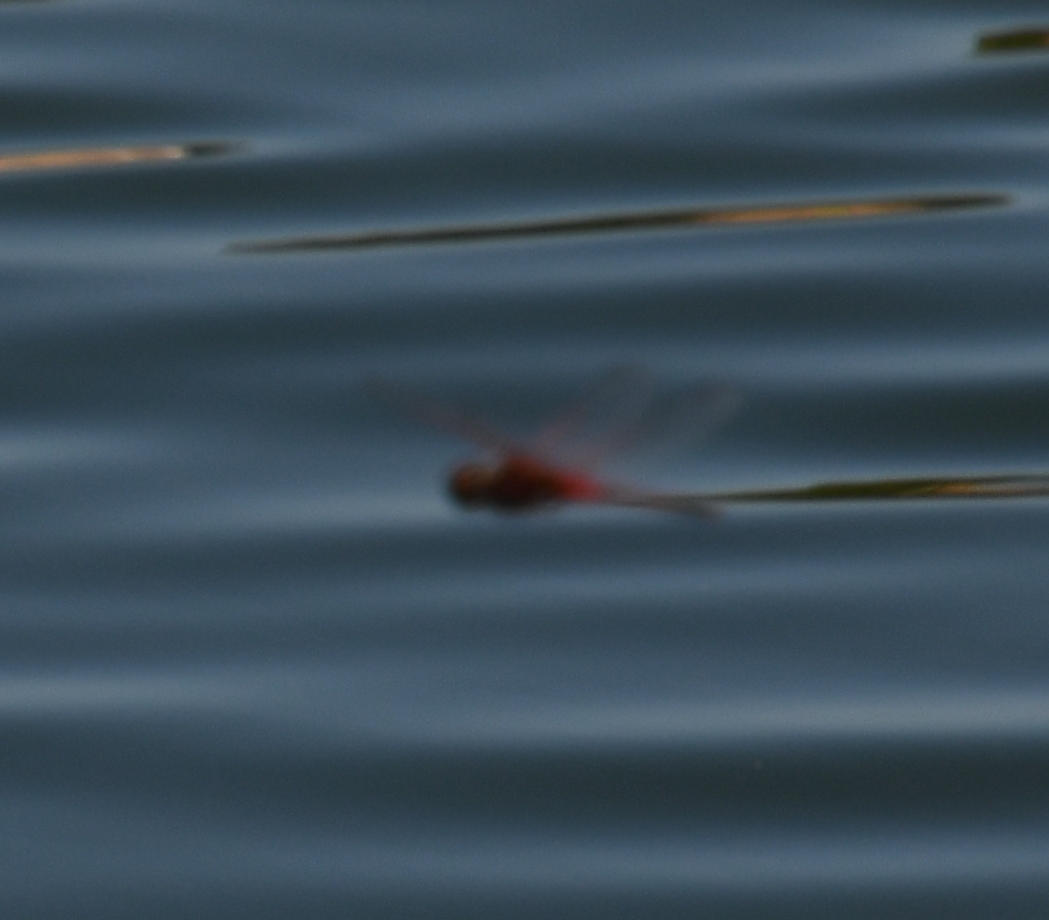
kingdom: Animalia
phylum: Arthropoda
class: Insecta
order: Odonata
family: Libellulidae
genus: Celithemis
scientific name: Celithemis bertha
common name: Red-veined pennant
